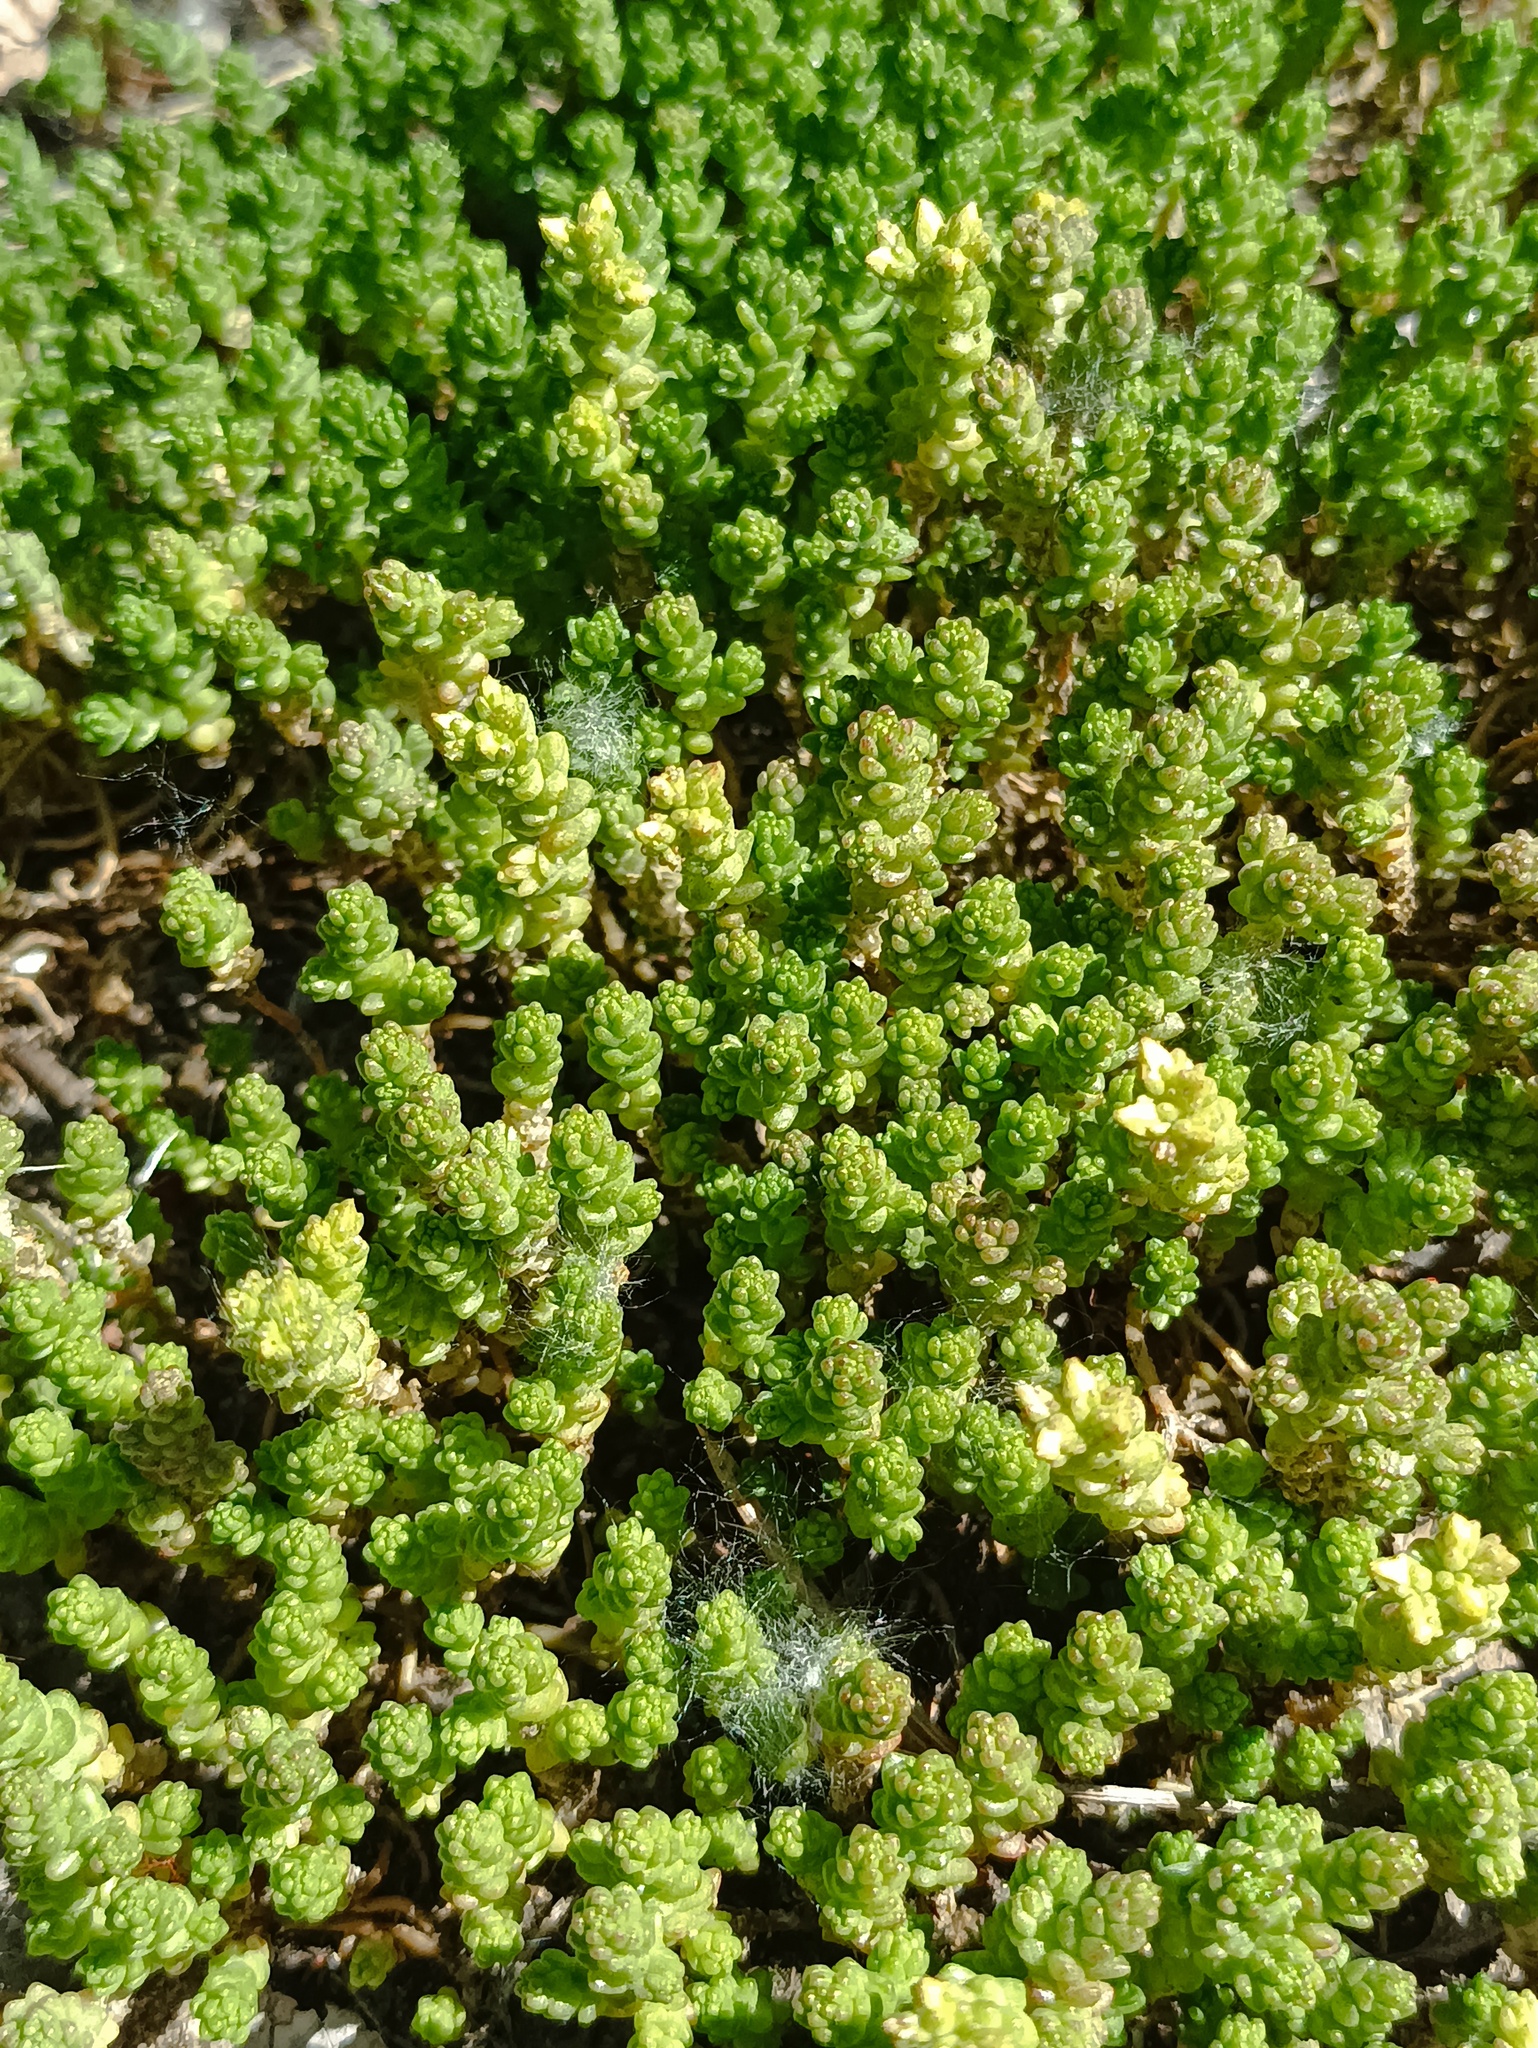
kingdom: Plantae
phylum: Tracheophyta
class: Magnoliopsida
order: Saxifragales
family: Crassulaceae
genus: Sedum
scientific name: Sedum acre
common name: Biting stonecrop
